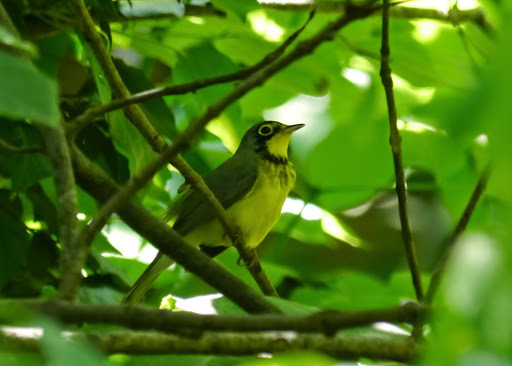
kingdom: Animalia
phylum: Chordata
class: Aves
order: Passeriformes
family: Parulidae
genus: Cardellina
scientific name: Cardellina canadensis
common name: Canada warbler
